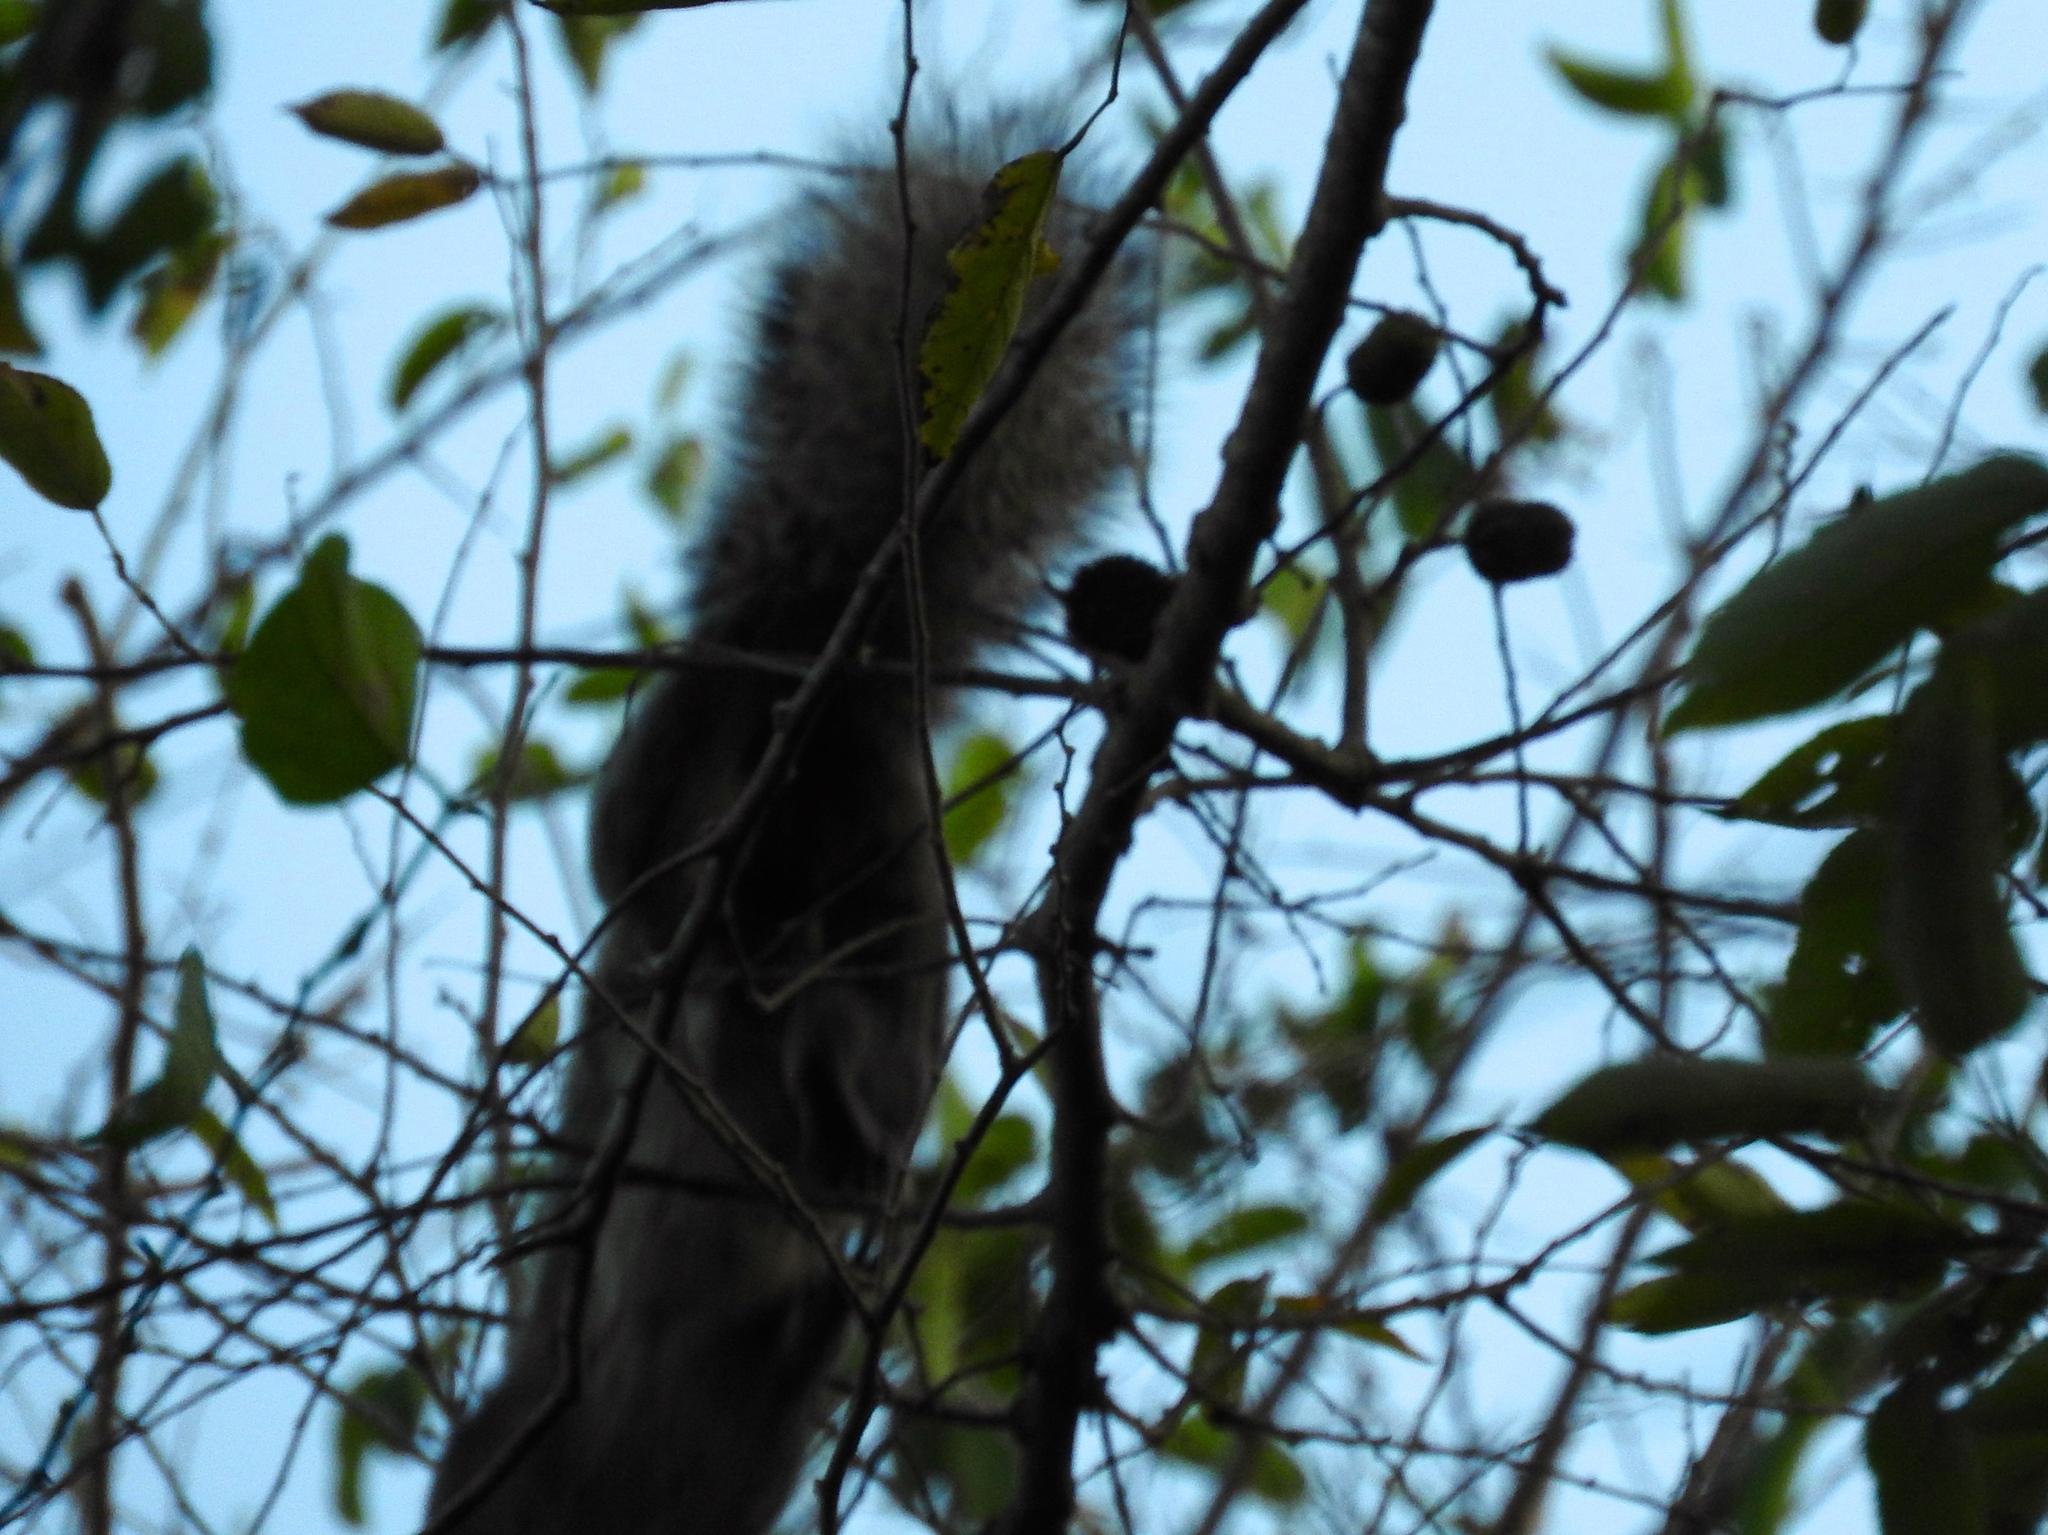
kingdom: Animalia
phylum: Chordata
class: Mammalia
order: Rodentia
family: Sciuridae
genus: Sciurus
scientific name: Sciurus colliaei
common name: Collie's squirrel
